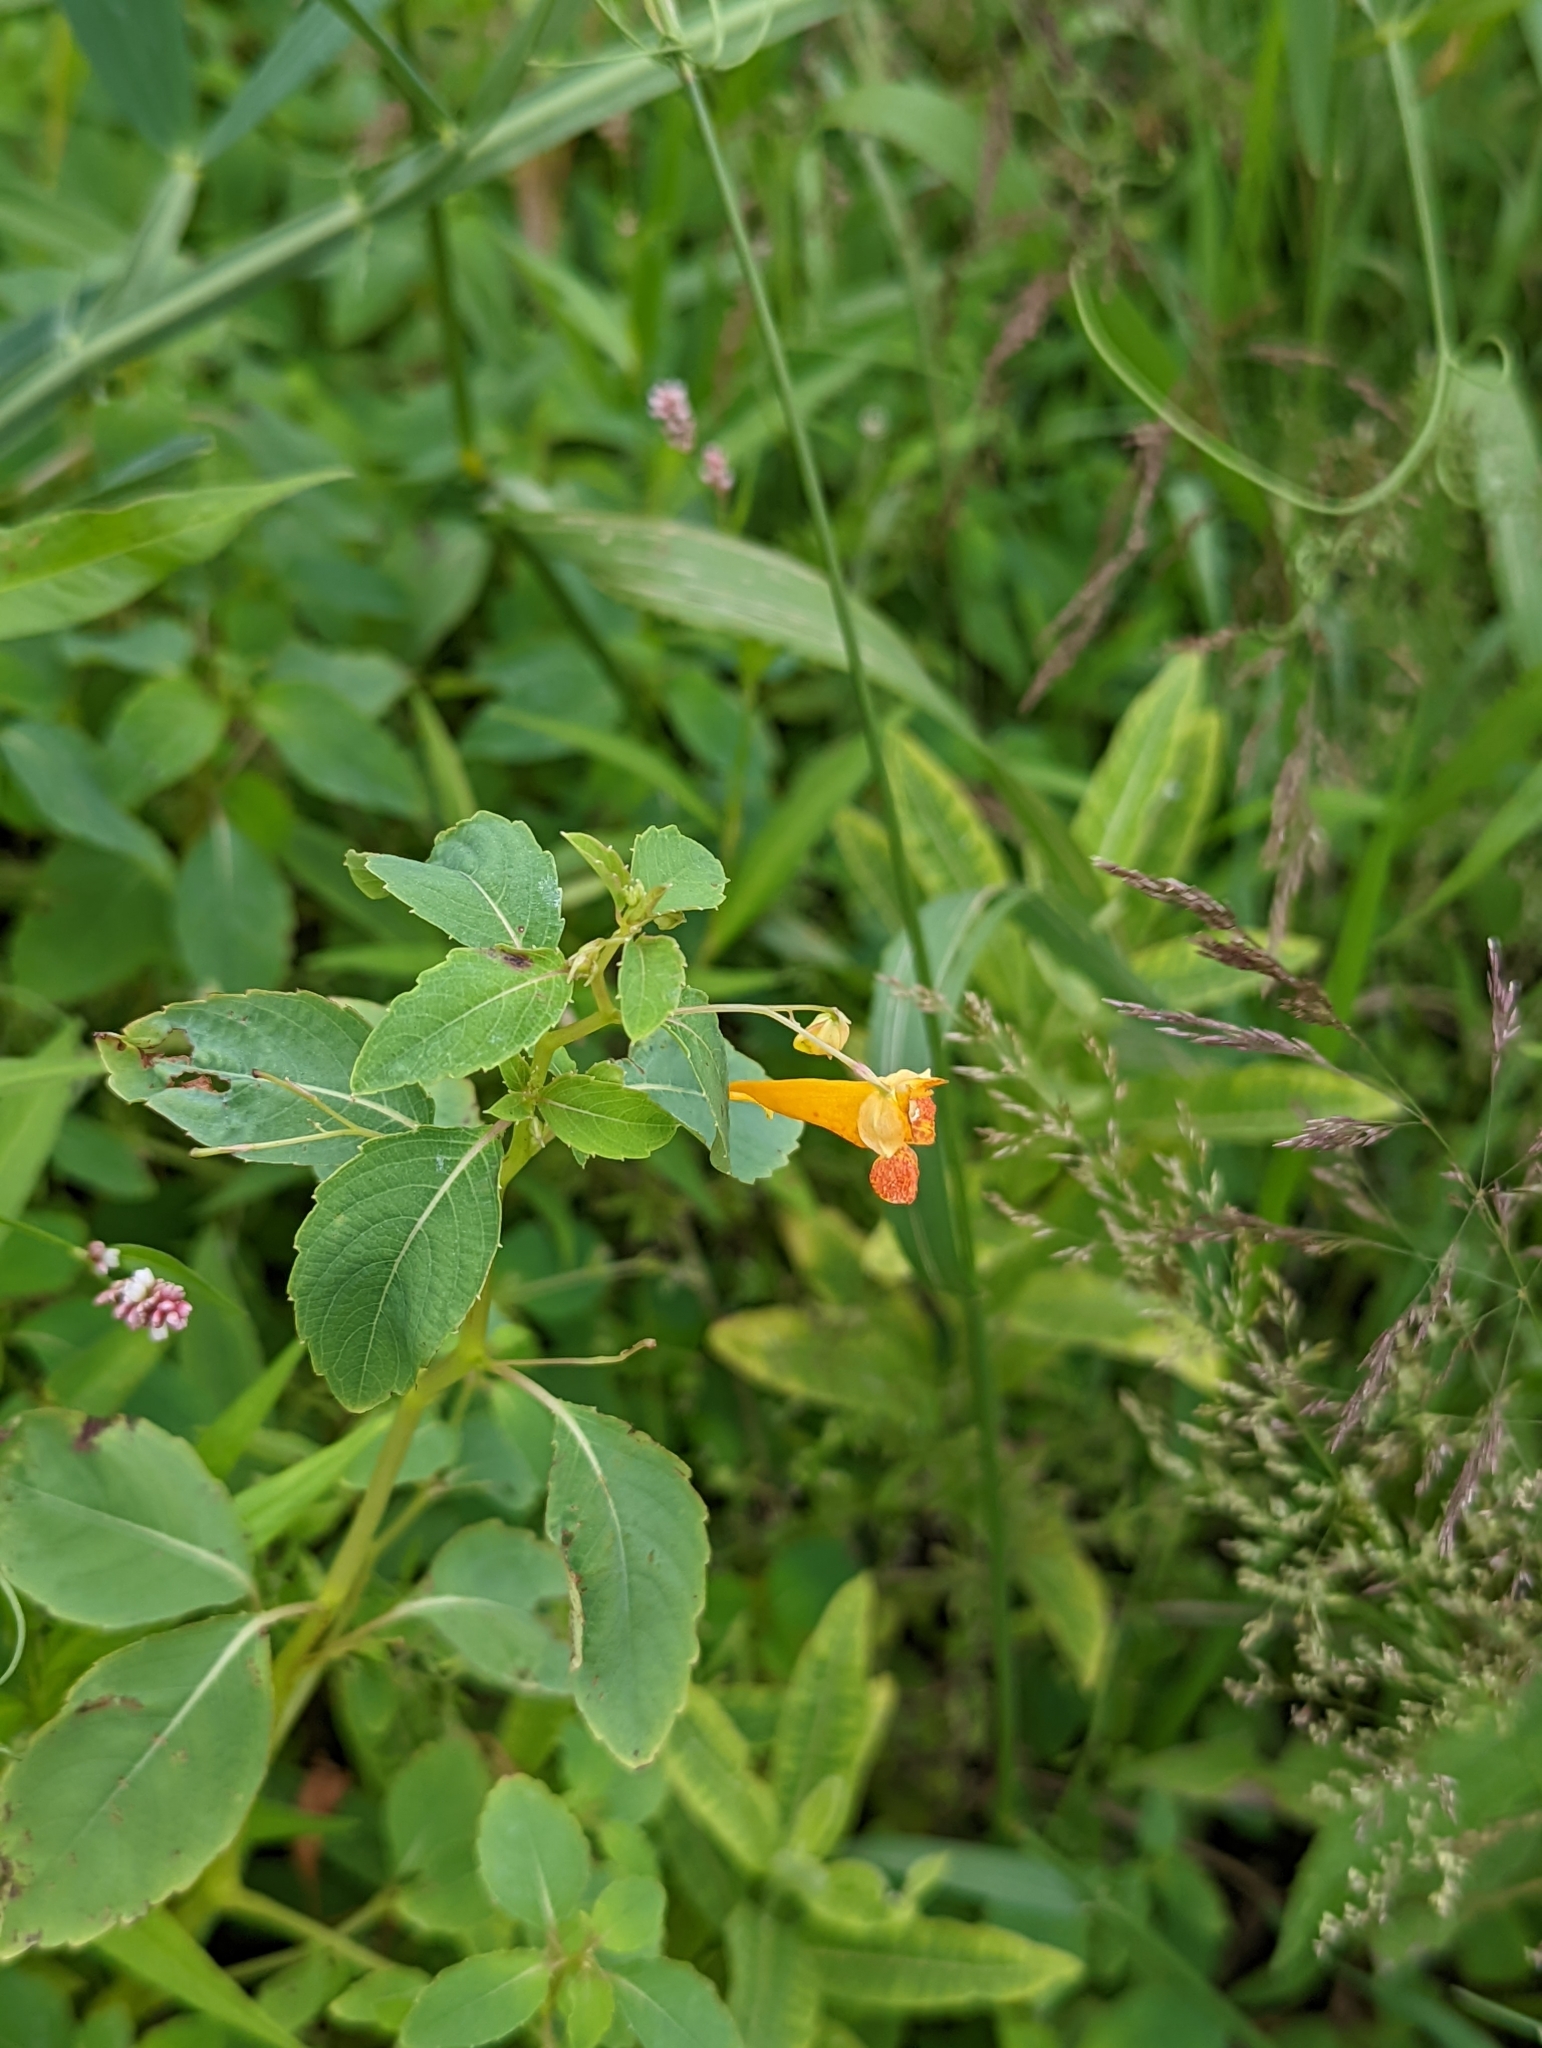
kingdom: Plantae
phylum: Tracheophyta
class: Magnoliopsida
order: Ericales
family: Balsaminaceae
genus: Impatiens
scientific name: Impatiens capensis
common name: Orange balsam
